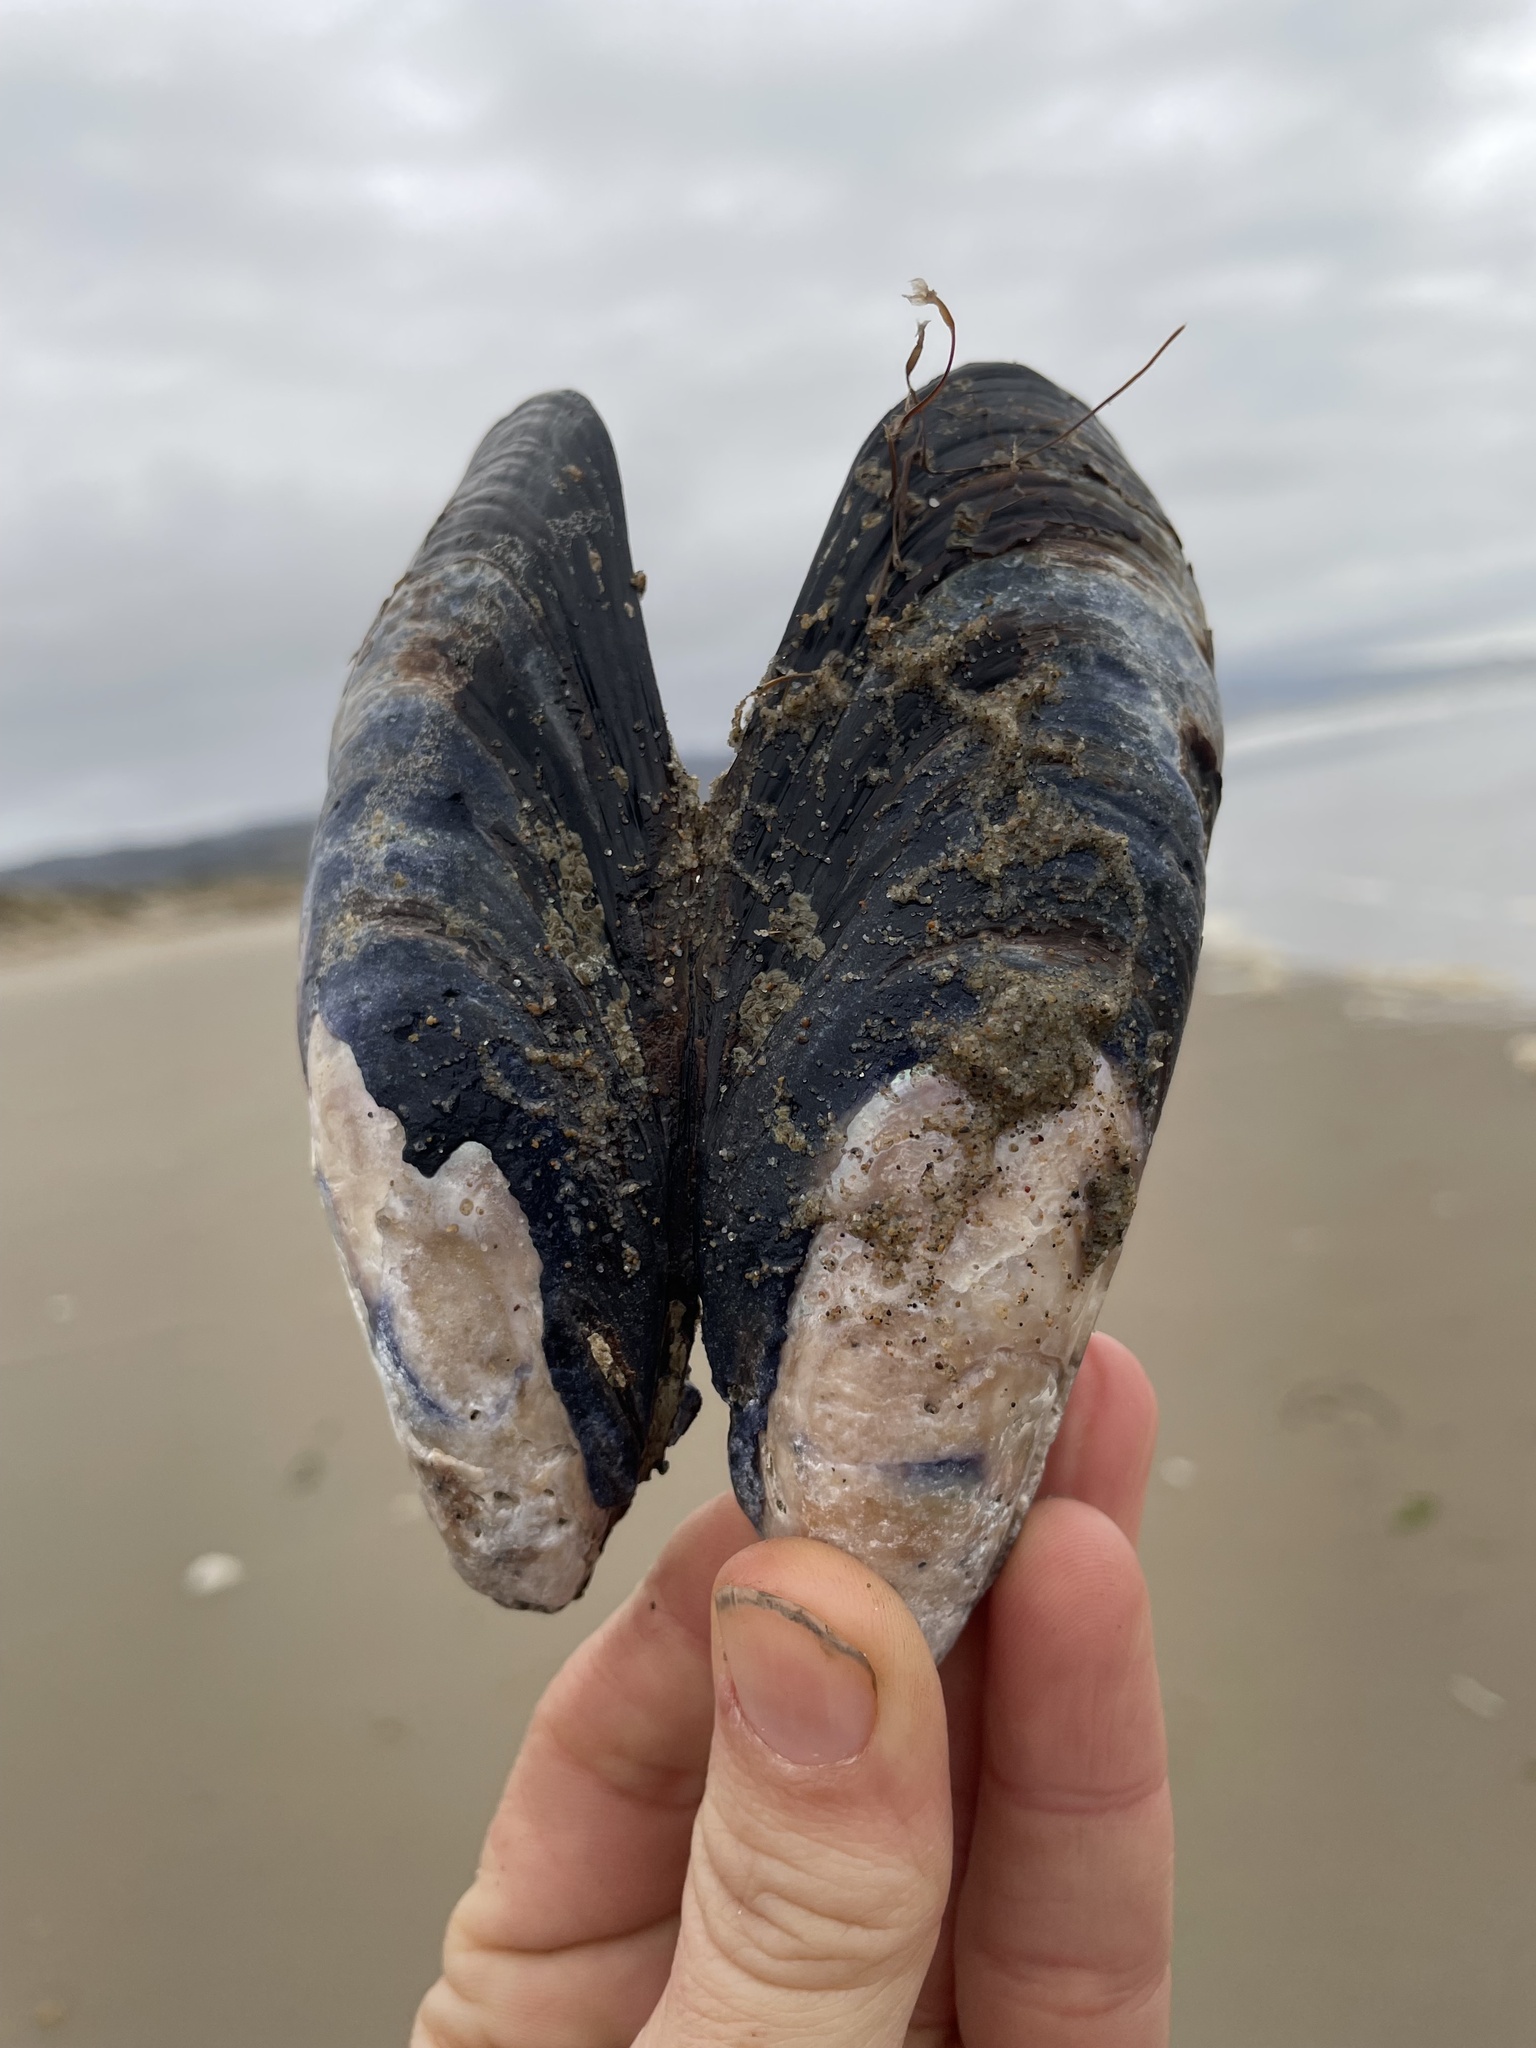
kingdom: Animalia
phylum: Mollusca
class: Bivalvia
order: Mytilida
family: Mytilidae
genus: Mytilus
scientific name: Mytilus californianus
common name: California mussel
